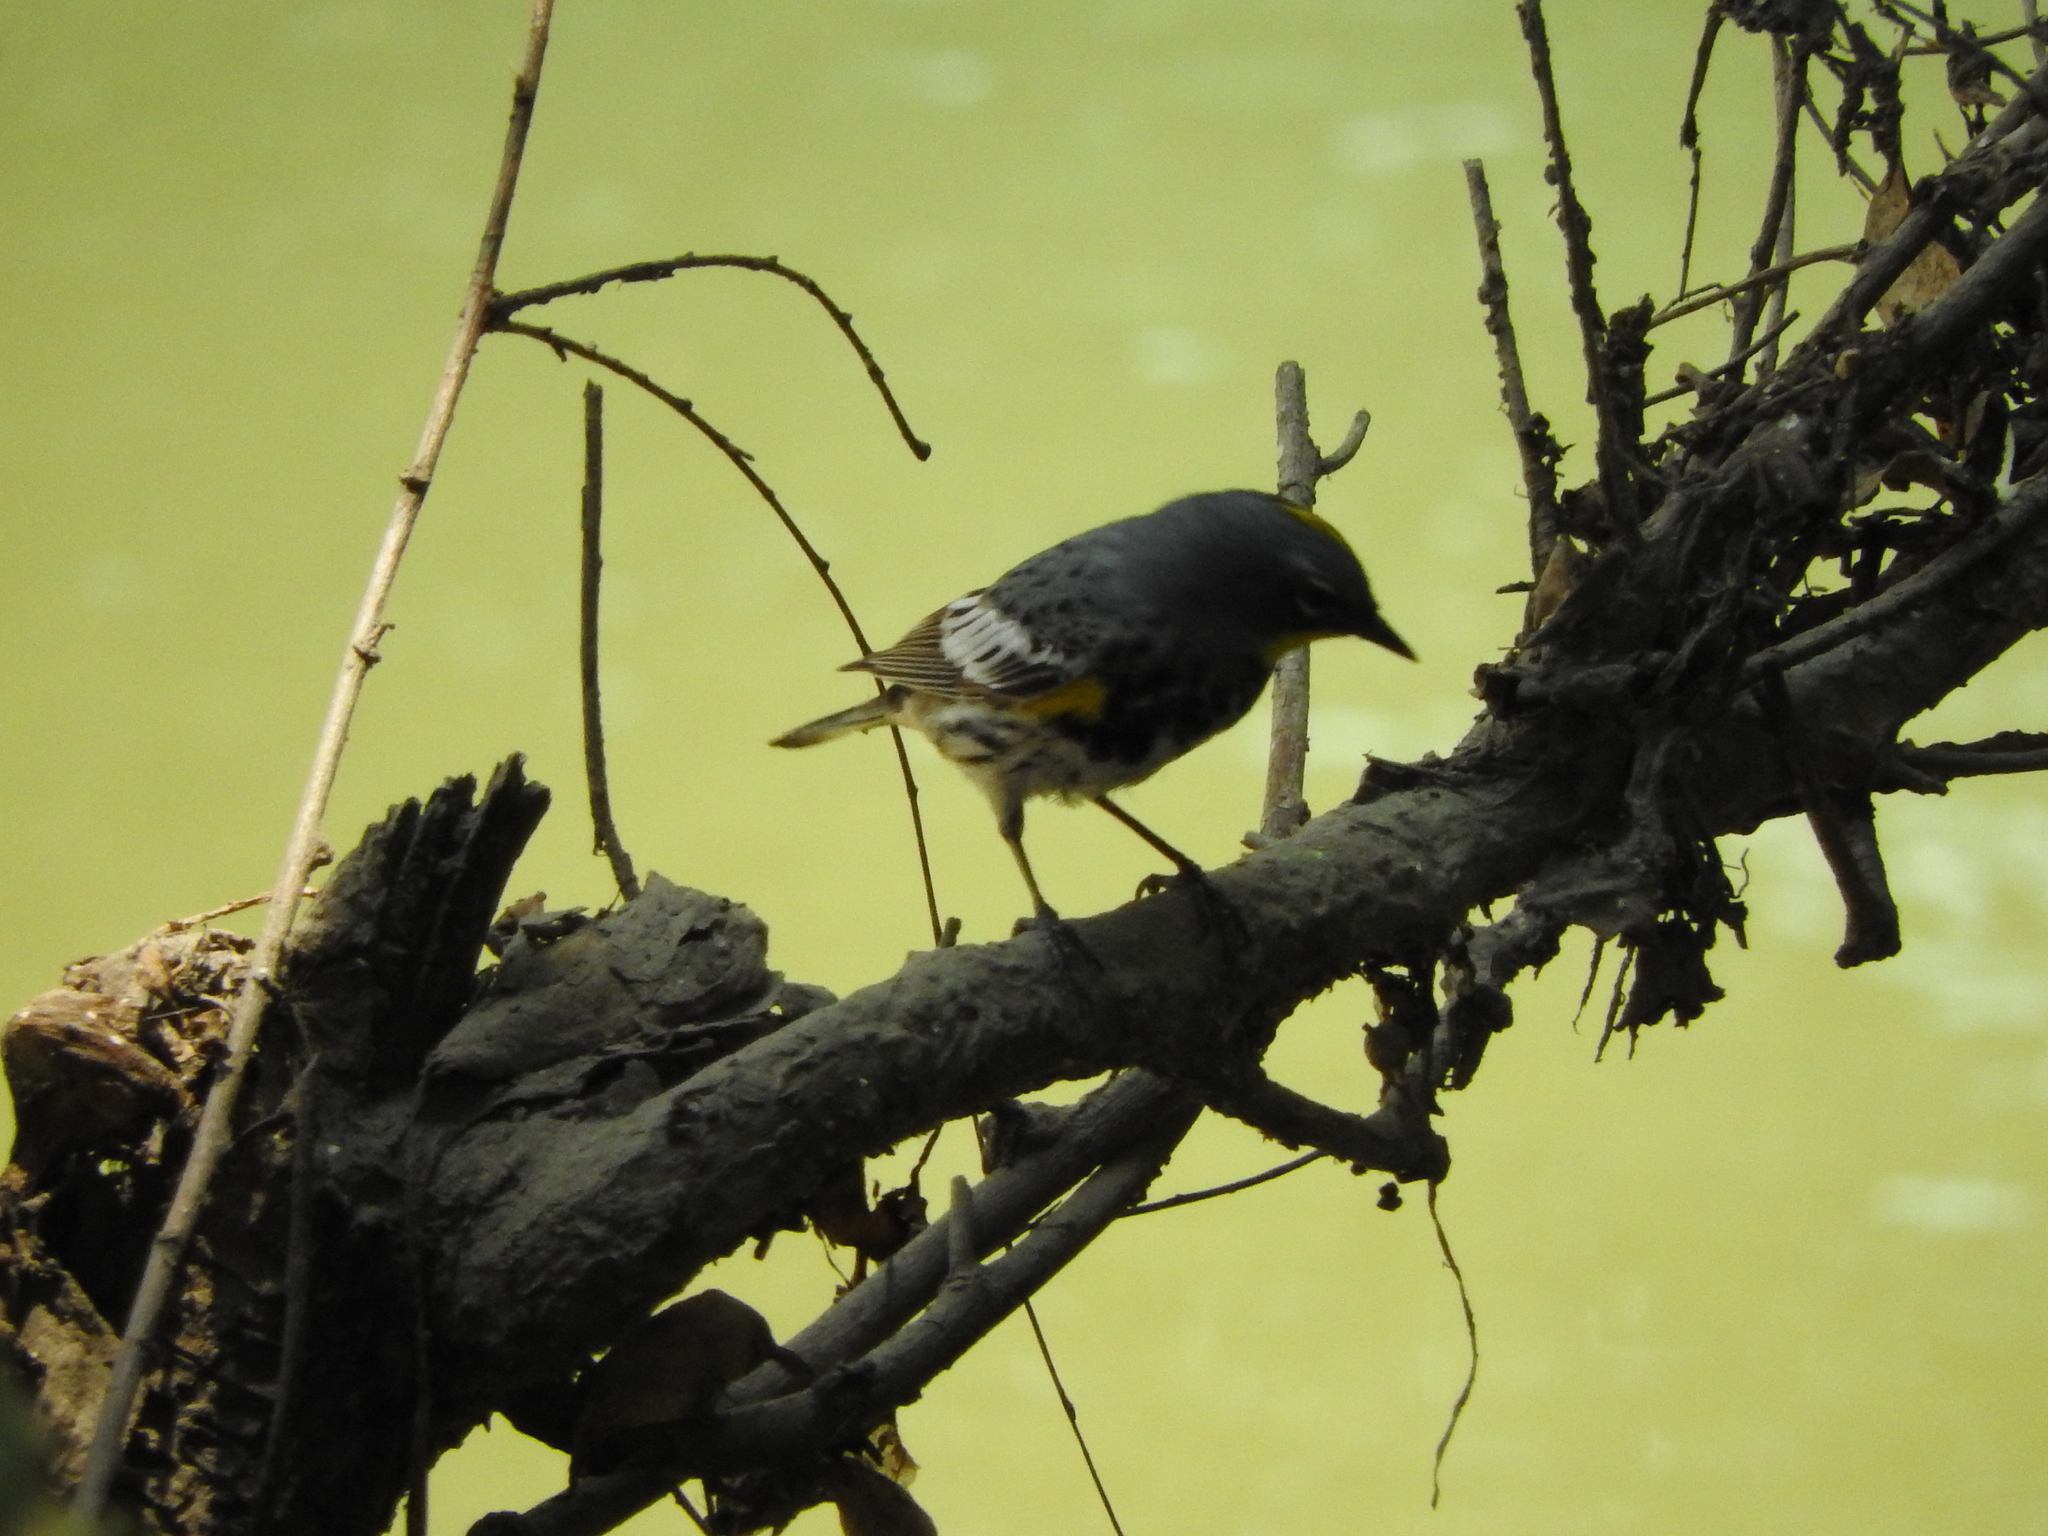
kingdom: Animalia
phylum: Chordata
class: Aves
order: Passeriformes
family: Parulidae
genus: Setophaga
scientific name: Setophaga coronata
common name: Myrtle warbler
